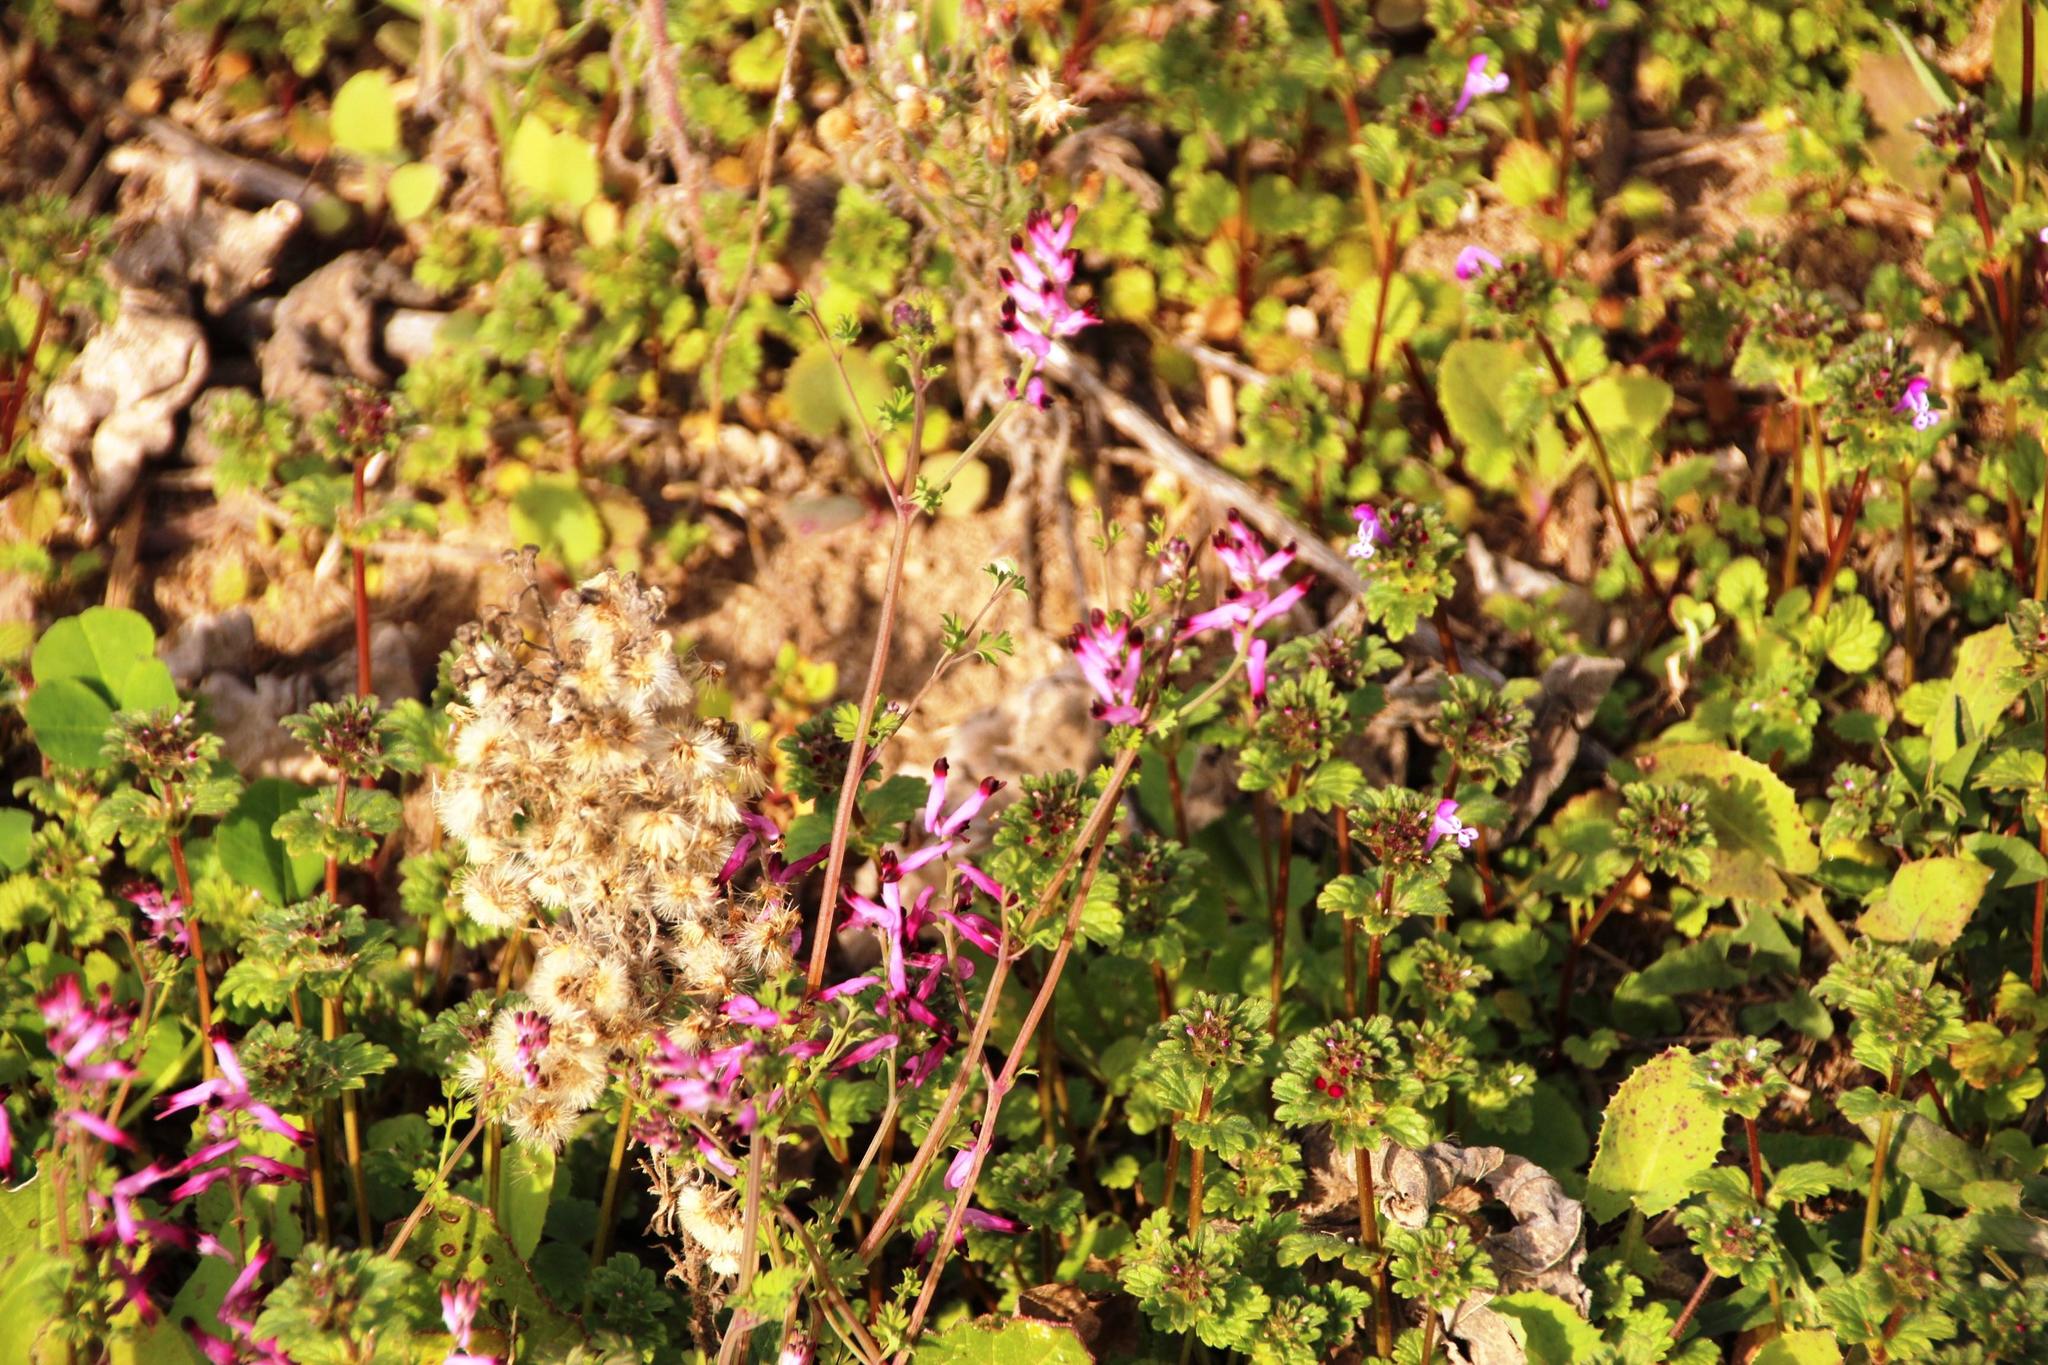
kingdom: Plantae
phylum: Tracheophyta
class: Magnoliopsida
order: Ranunculales
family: Papaveraceae
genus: Fumaria
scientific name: Fumaria muralis
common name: Common ramping-fumitory
